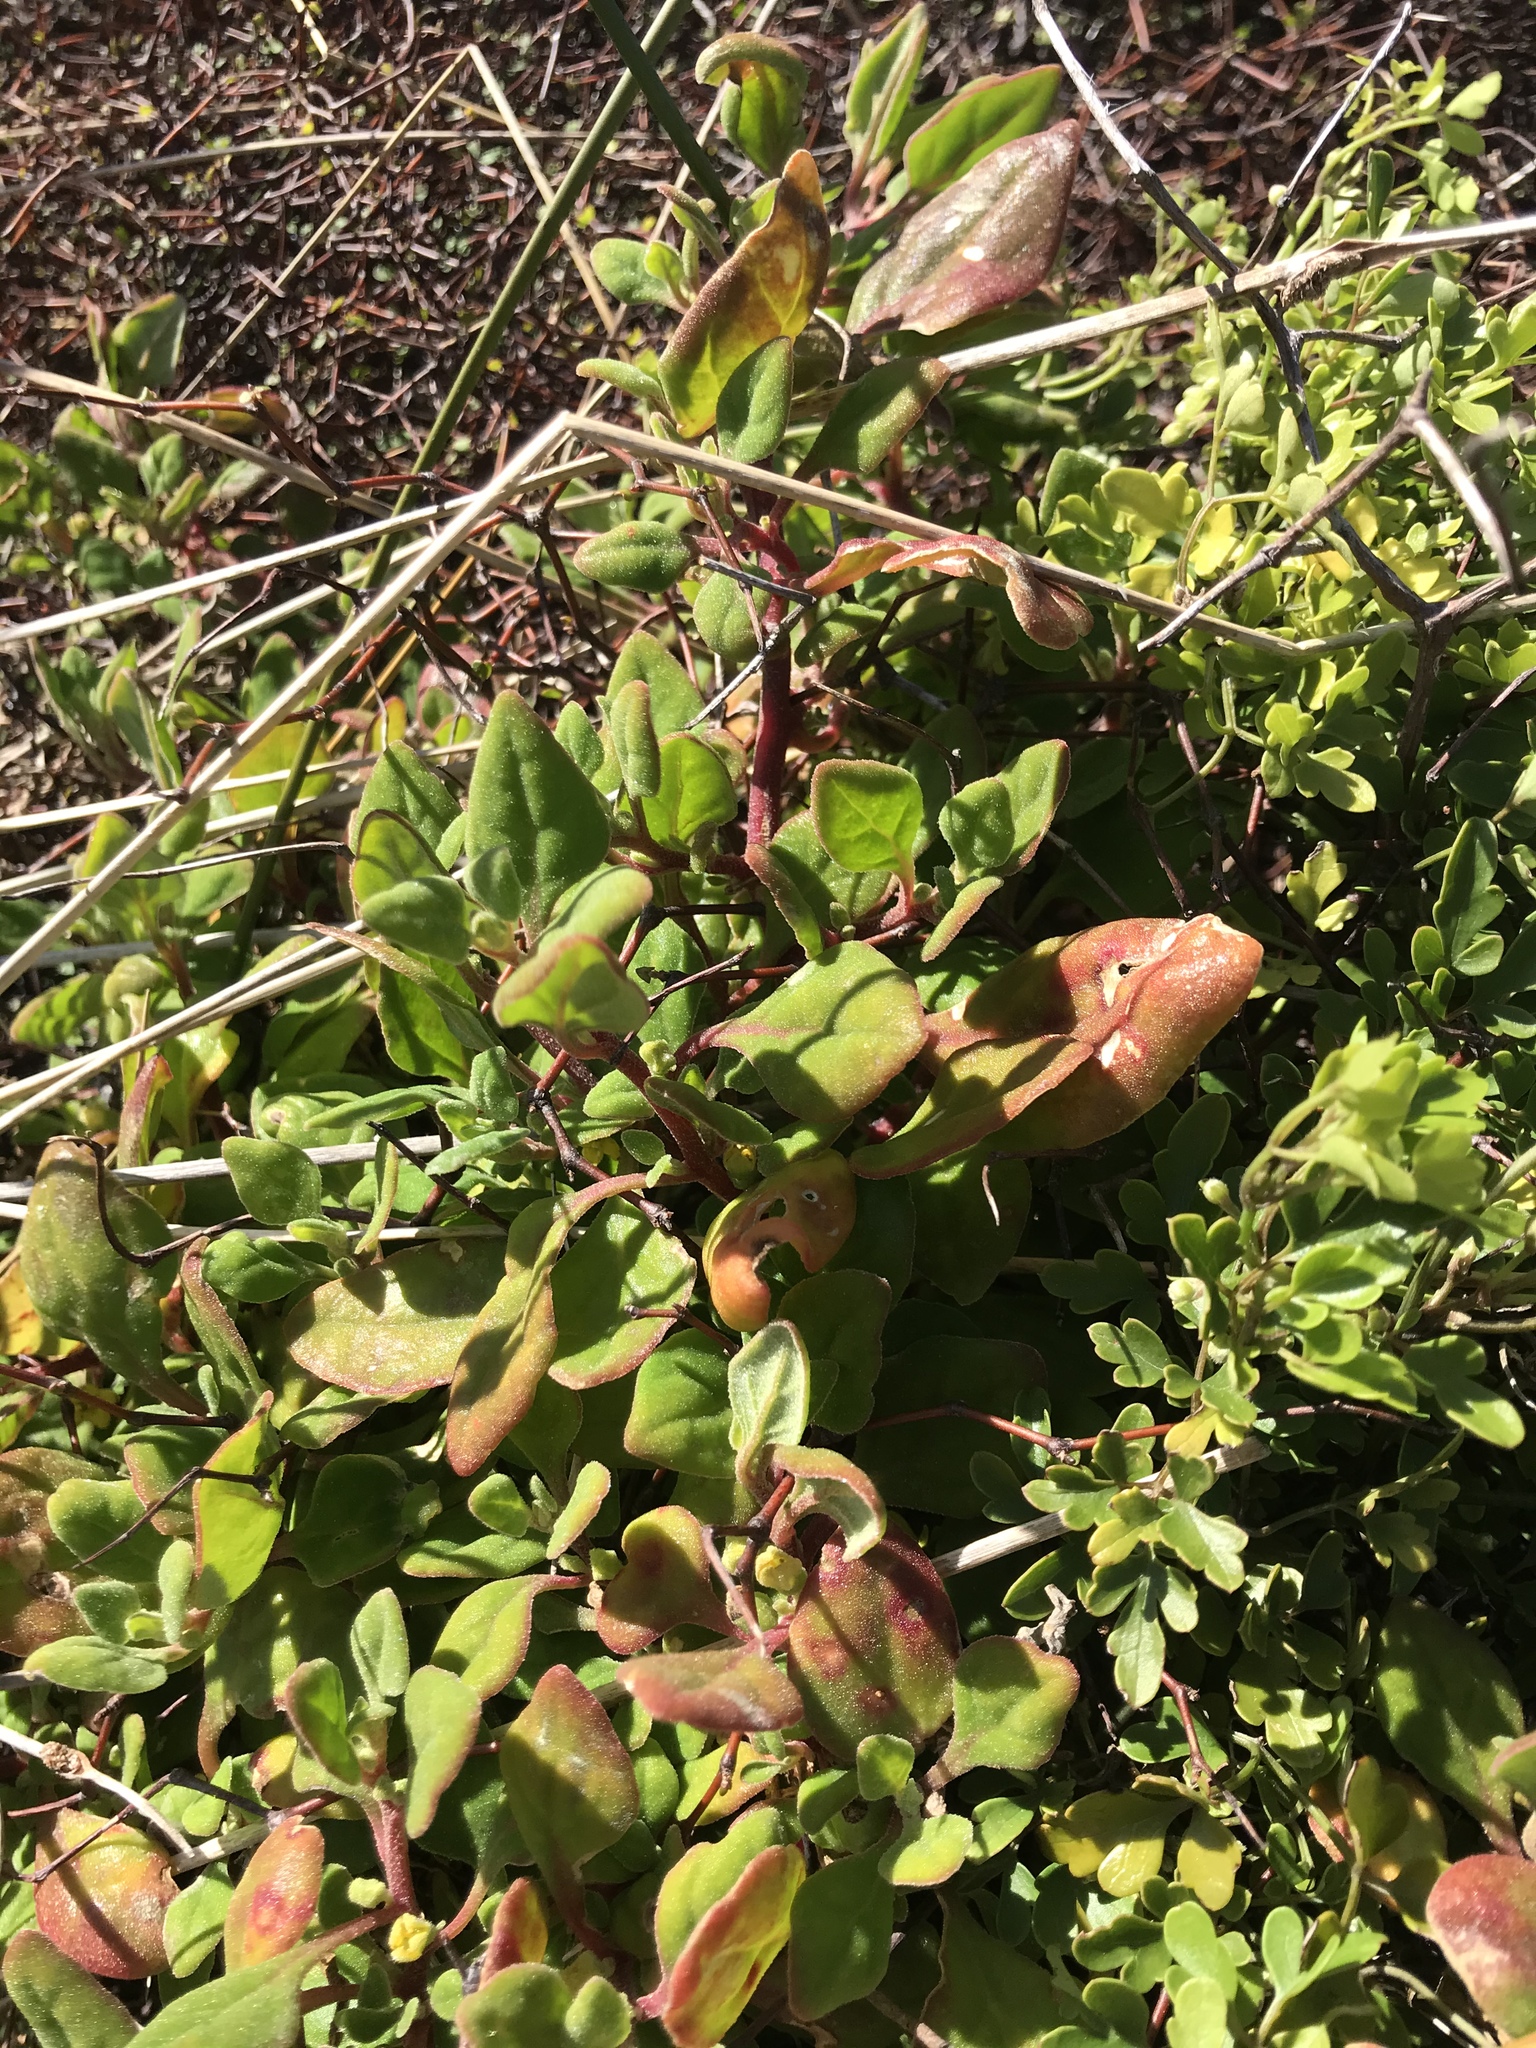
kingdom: Plantae
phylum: Tracheophyta
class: Magnoliopsida
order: Caryophyllales
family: Aizoaceae
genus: Tetragonia
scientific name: Tetragonia implexicoma
